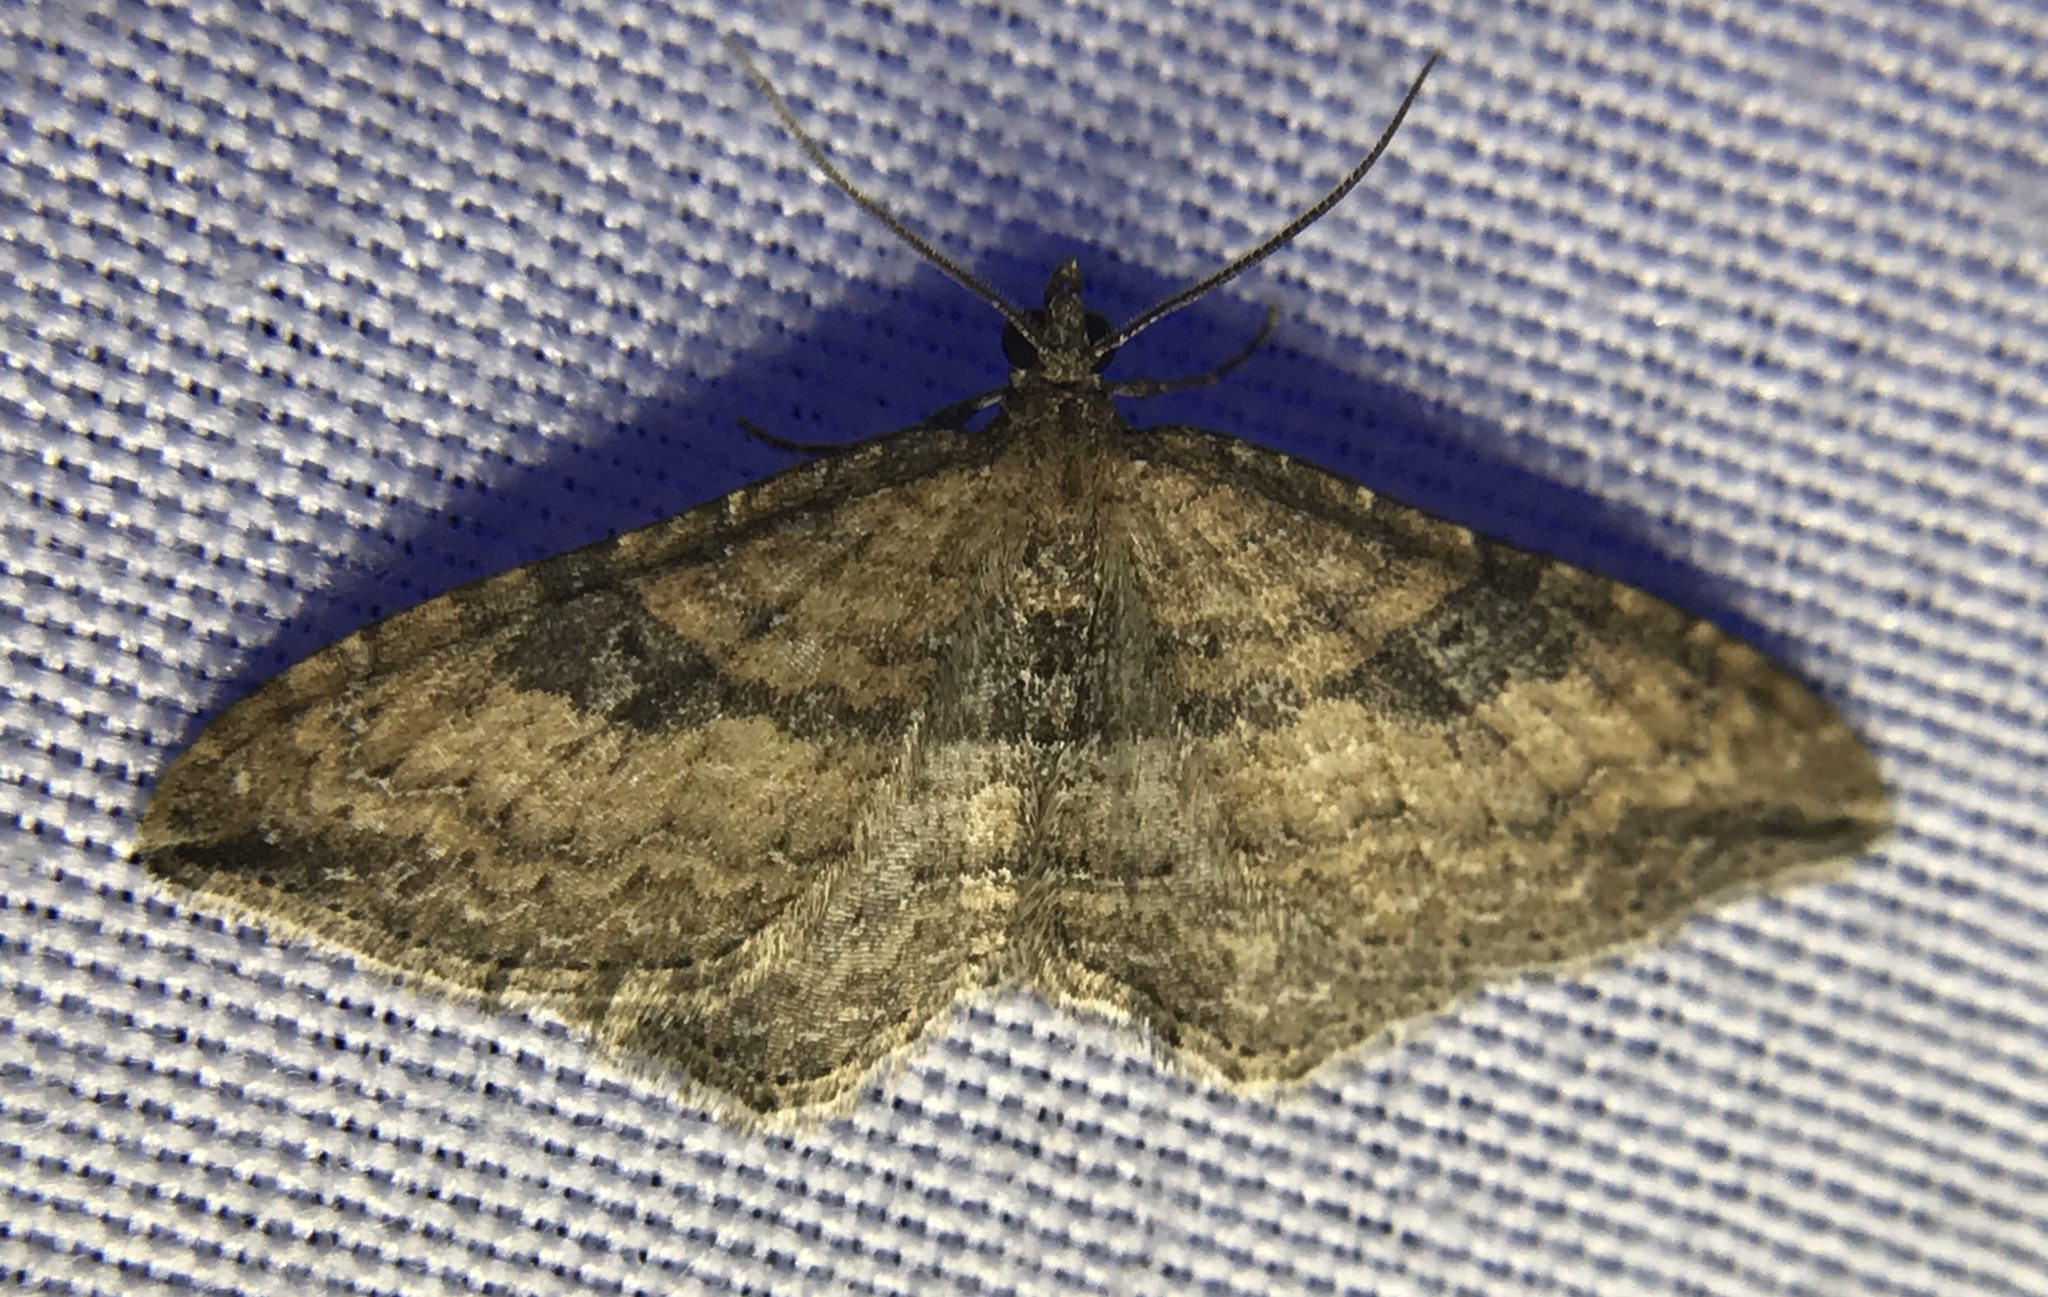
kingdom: Animalia
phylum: Arthropoda
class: Insecta
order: Lepidoptera
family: Geometridae
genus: Orthonama
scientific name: Orthonama obstipata
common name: The gem
